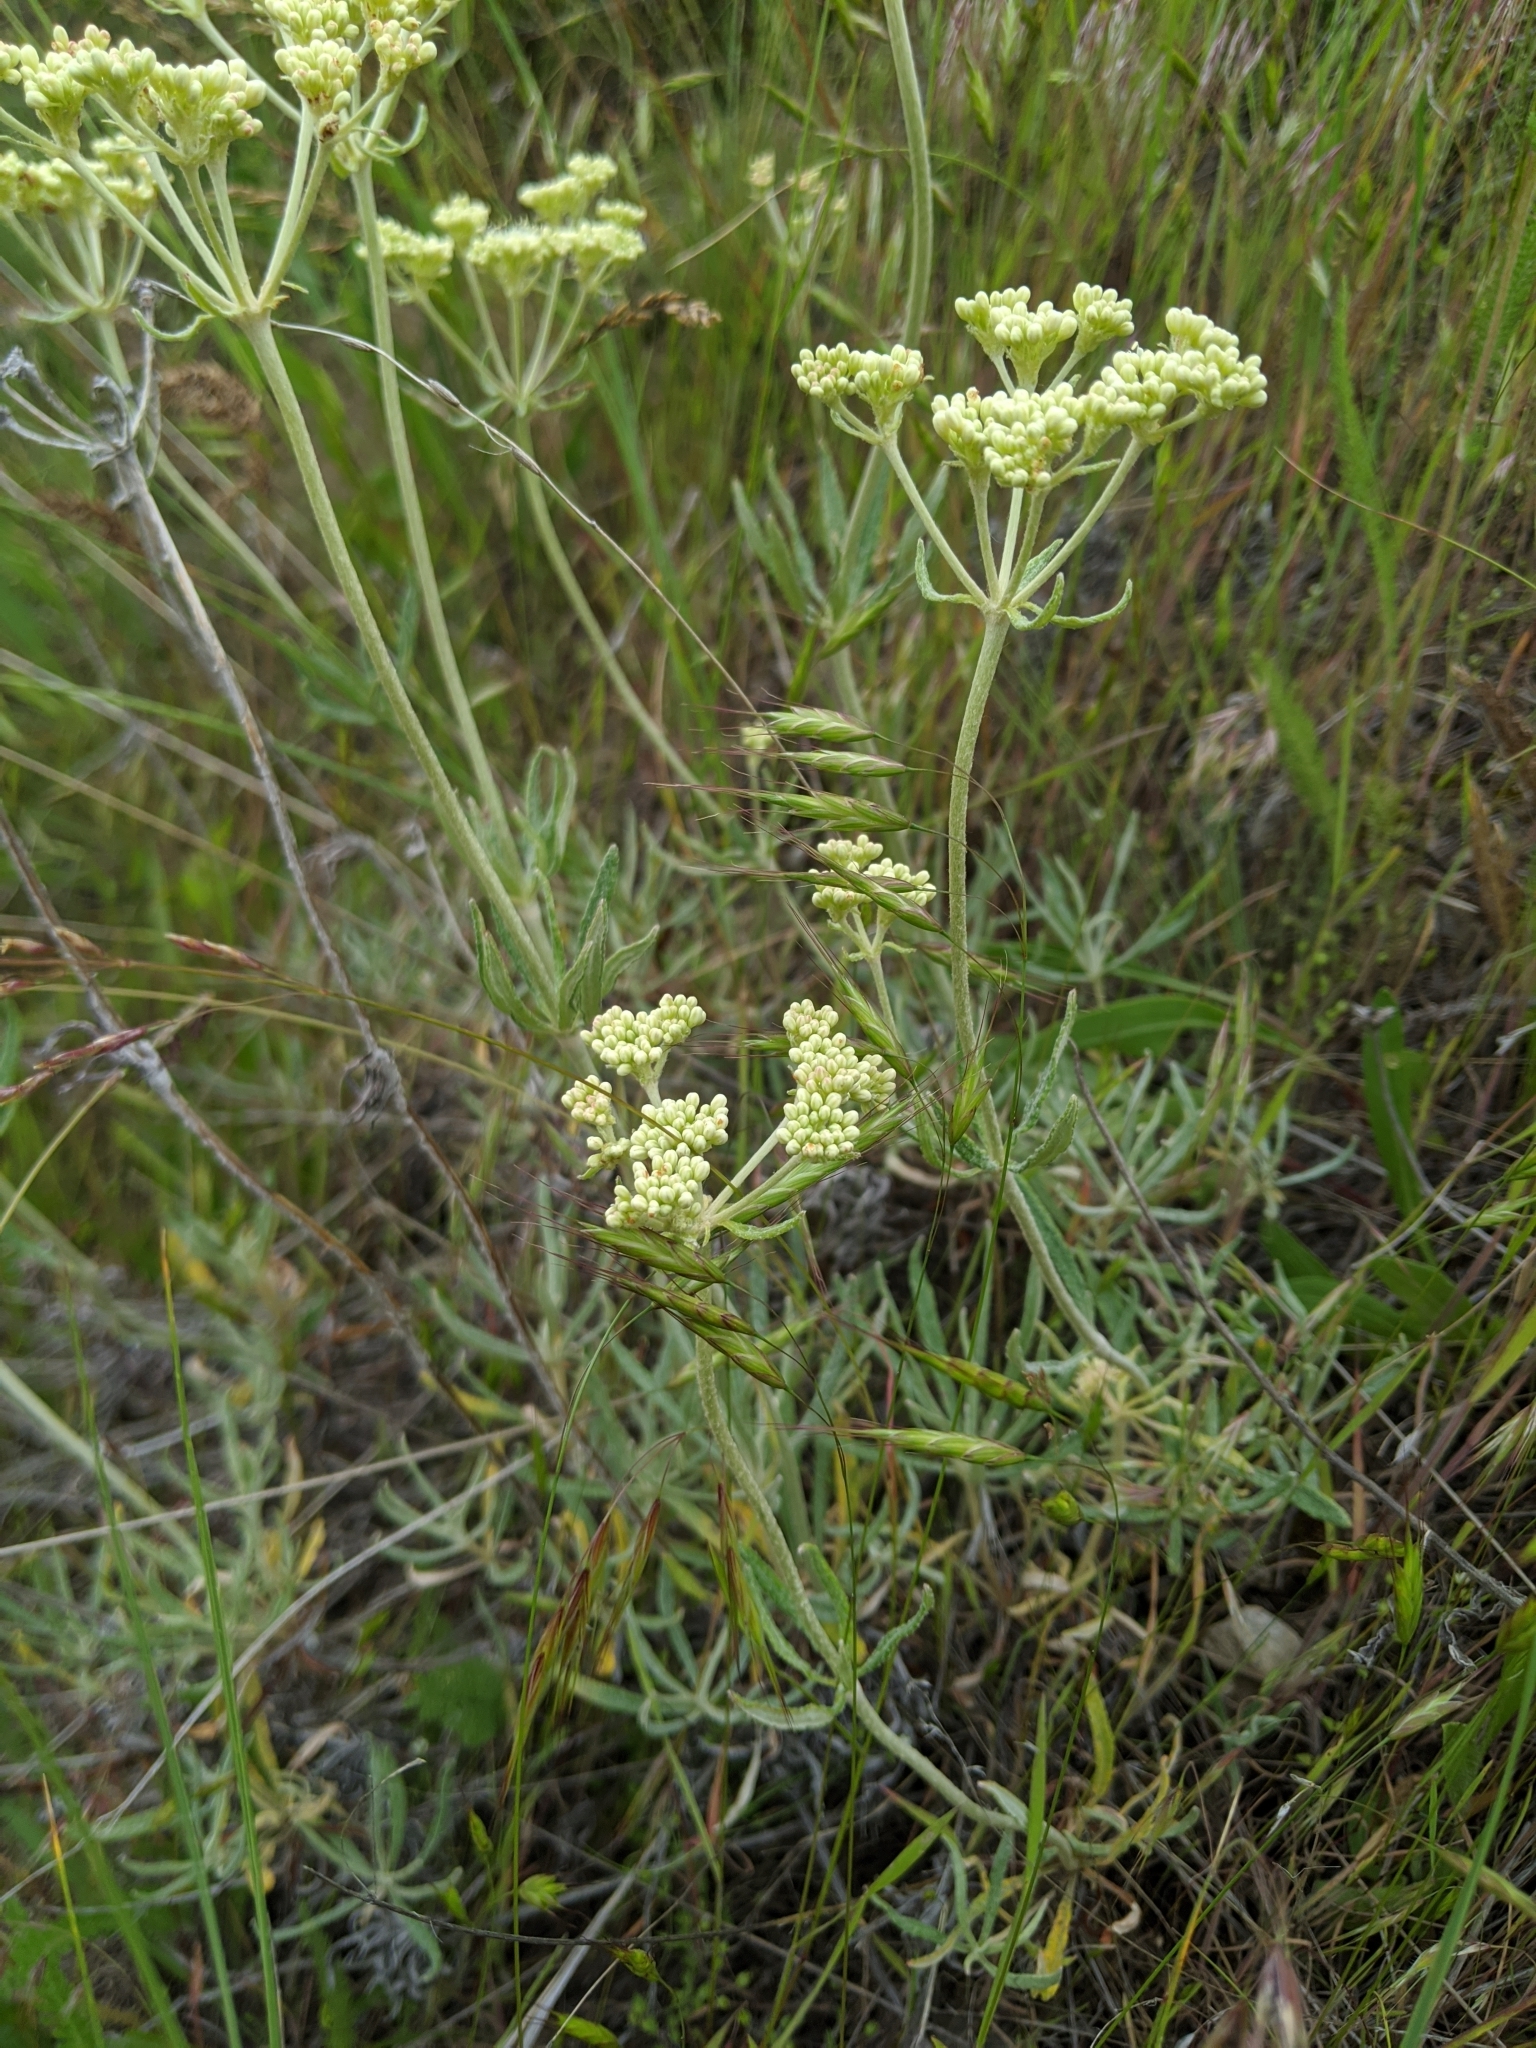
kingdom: Plantae
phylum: Tracheophyta
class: Magnoliopsida
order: Caryophyllales
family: Polygonaceae
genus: Eriogonum
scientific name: Eriogonum heracleoides
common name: Wyeth's buckwheat
